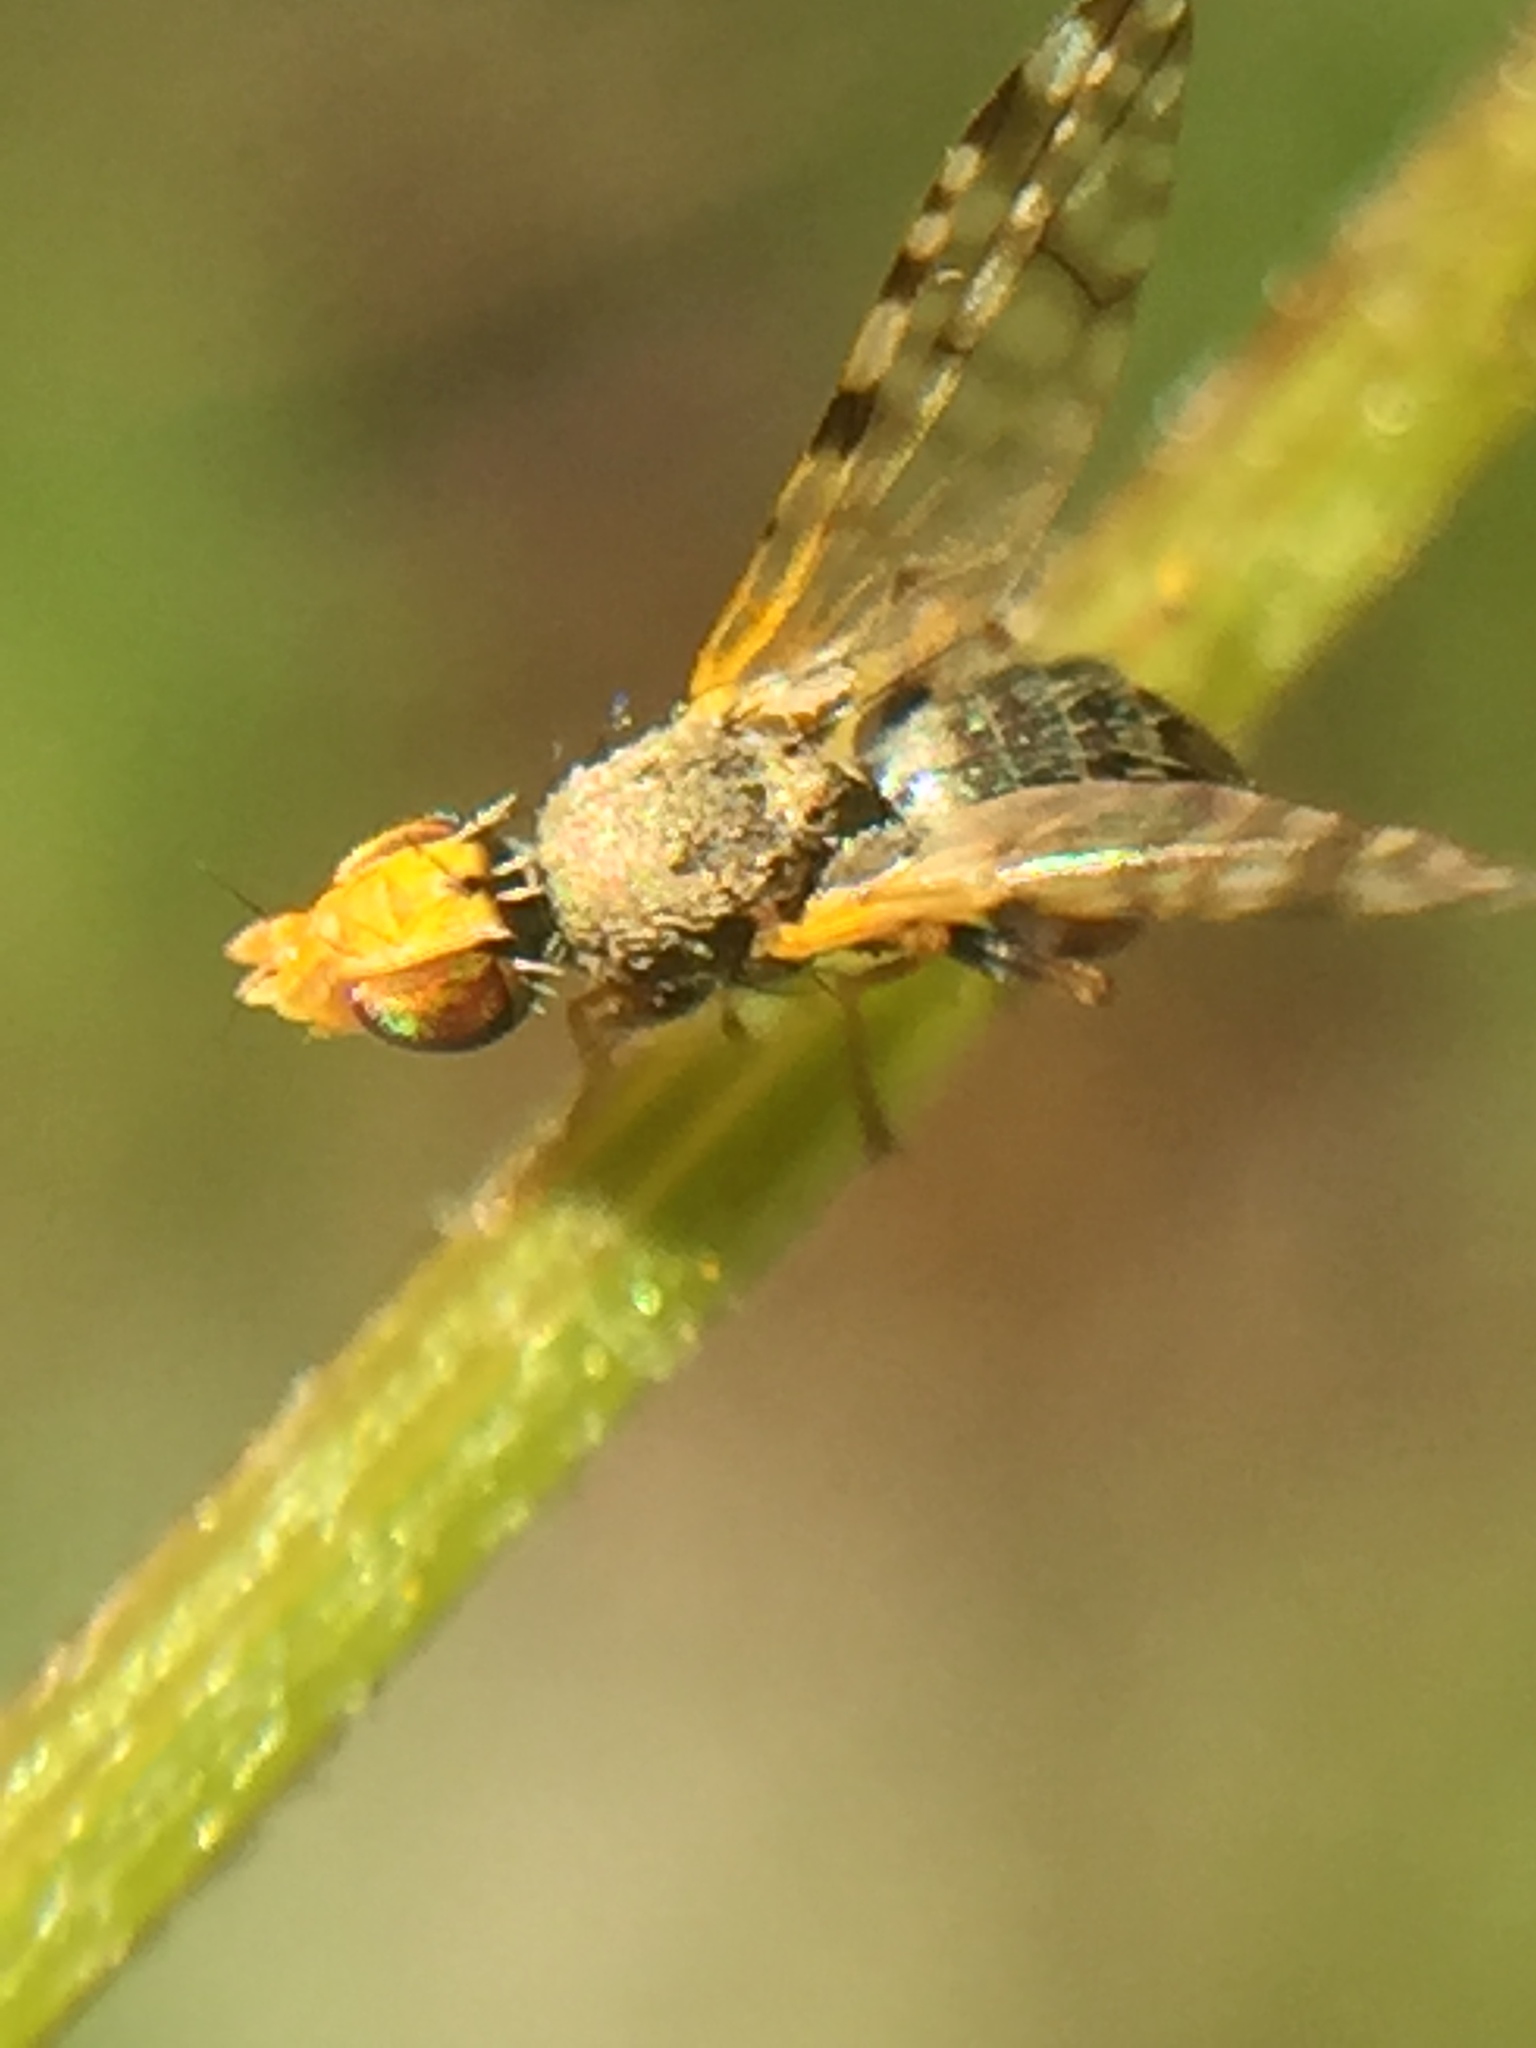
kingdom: Animalia
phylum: Arthropoda
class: Insecta
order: Diptera
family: Tephritidae
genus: Dioxyna
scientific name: Dioxyna sororcula
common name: Fruit fly
